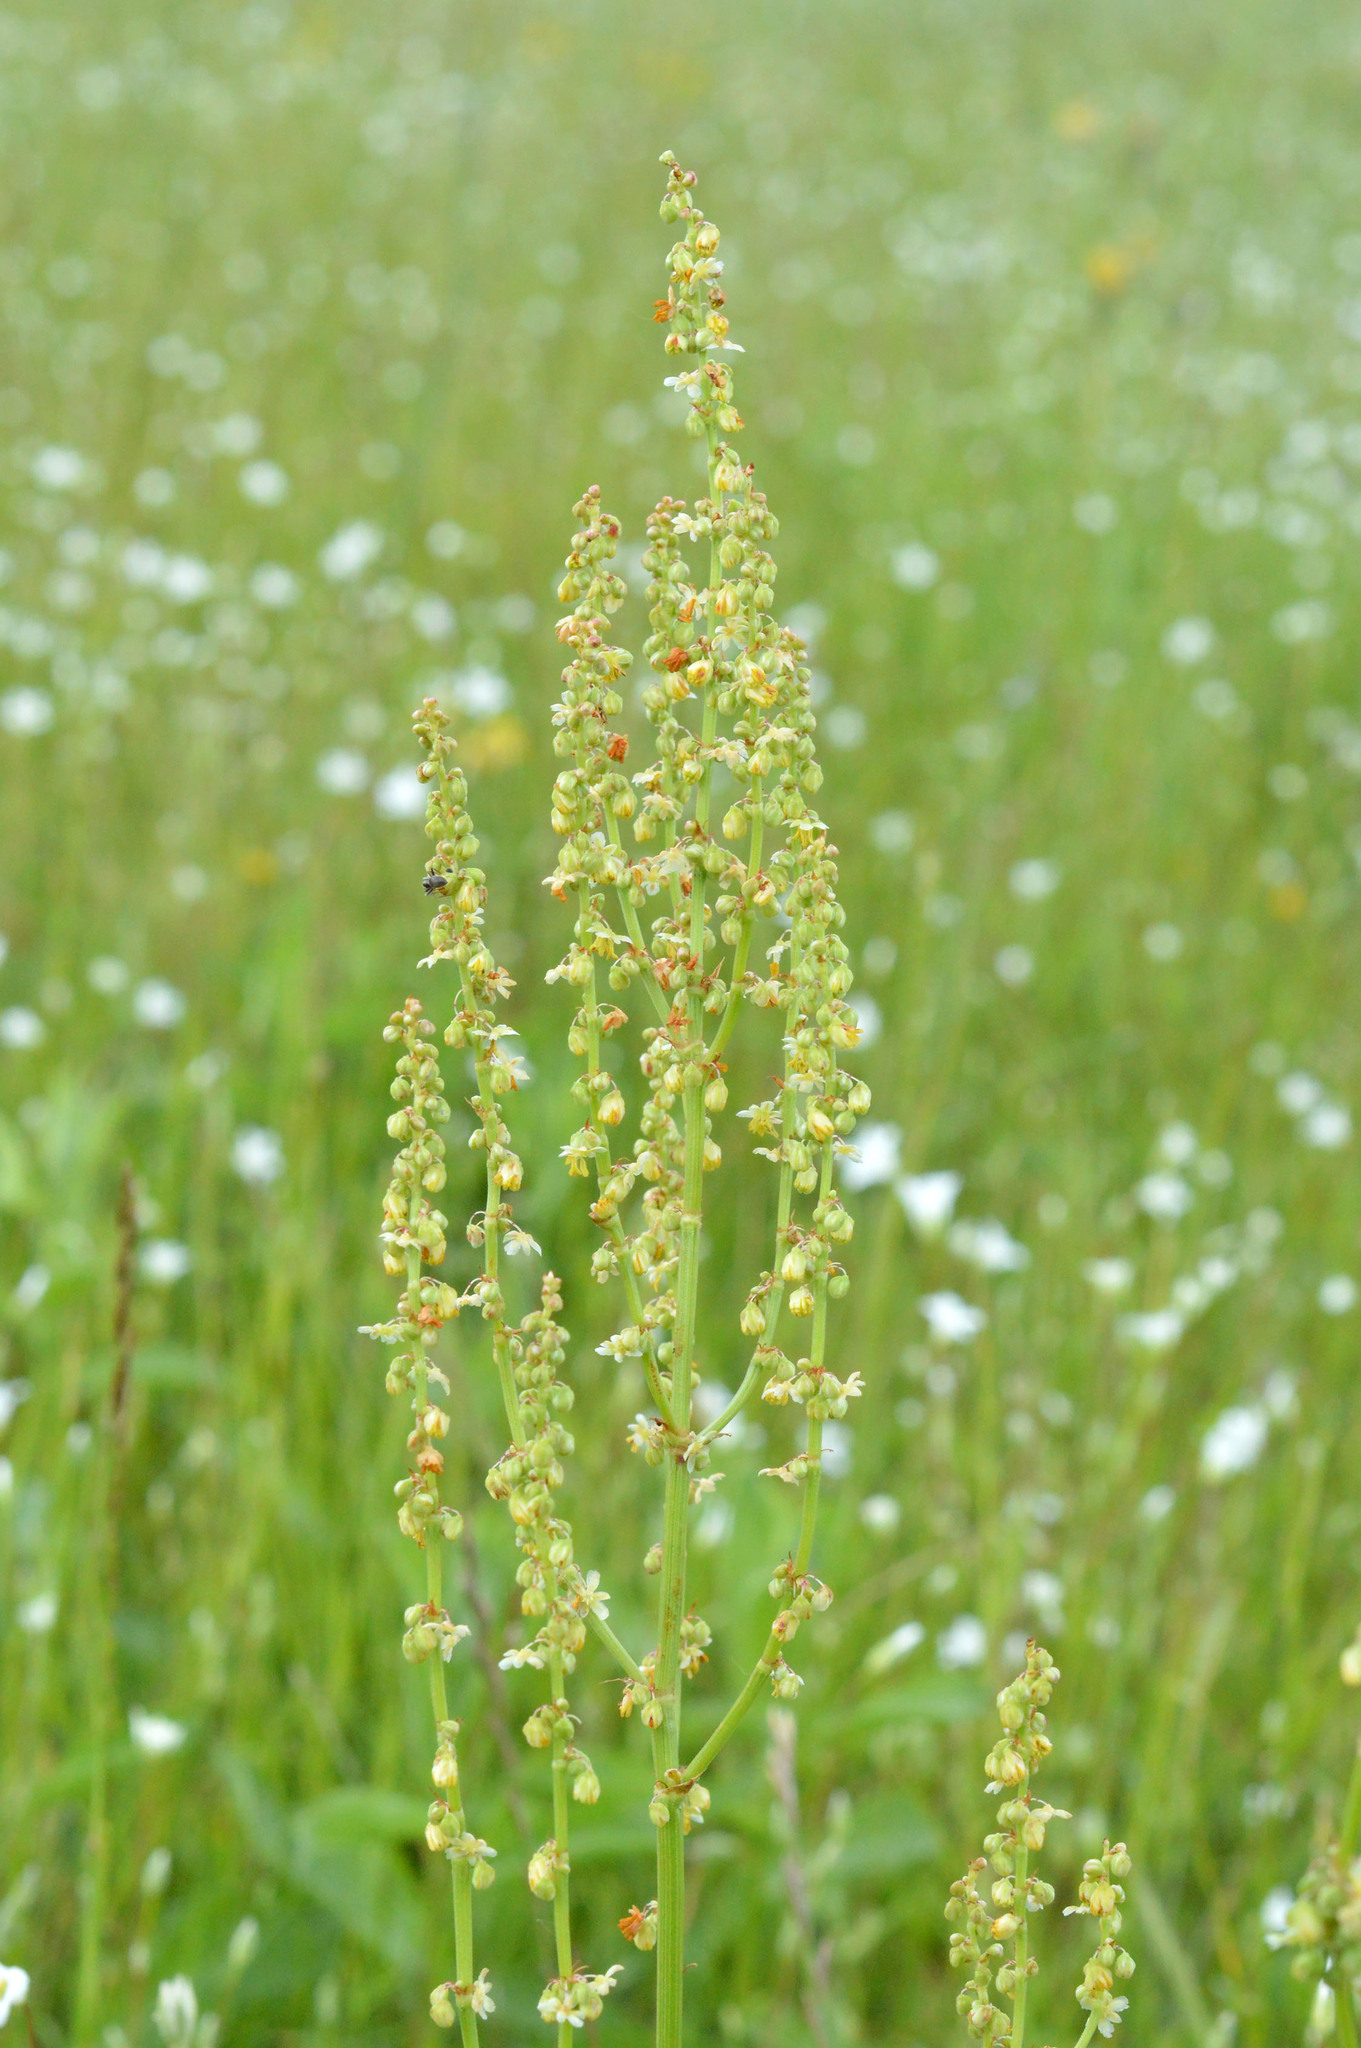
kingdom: Plantae
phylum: Tracheophyta
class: Magnoliopsida
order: Caryophyllales
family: Polygonaceae
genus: Rumex
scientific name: Rumex acetosa
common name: Garden sorrel
